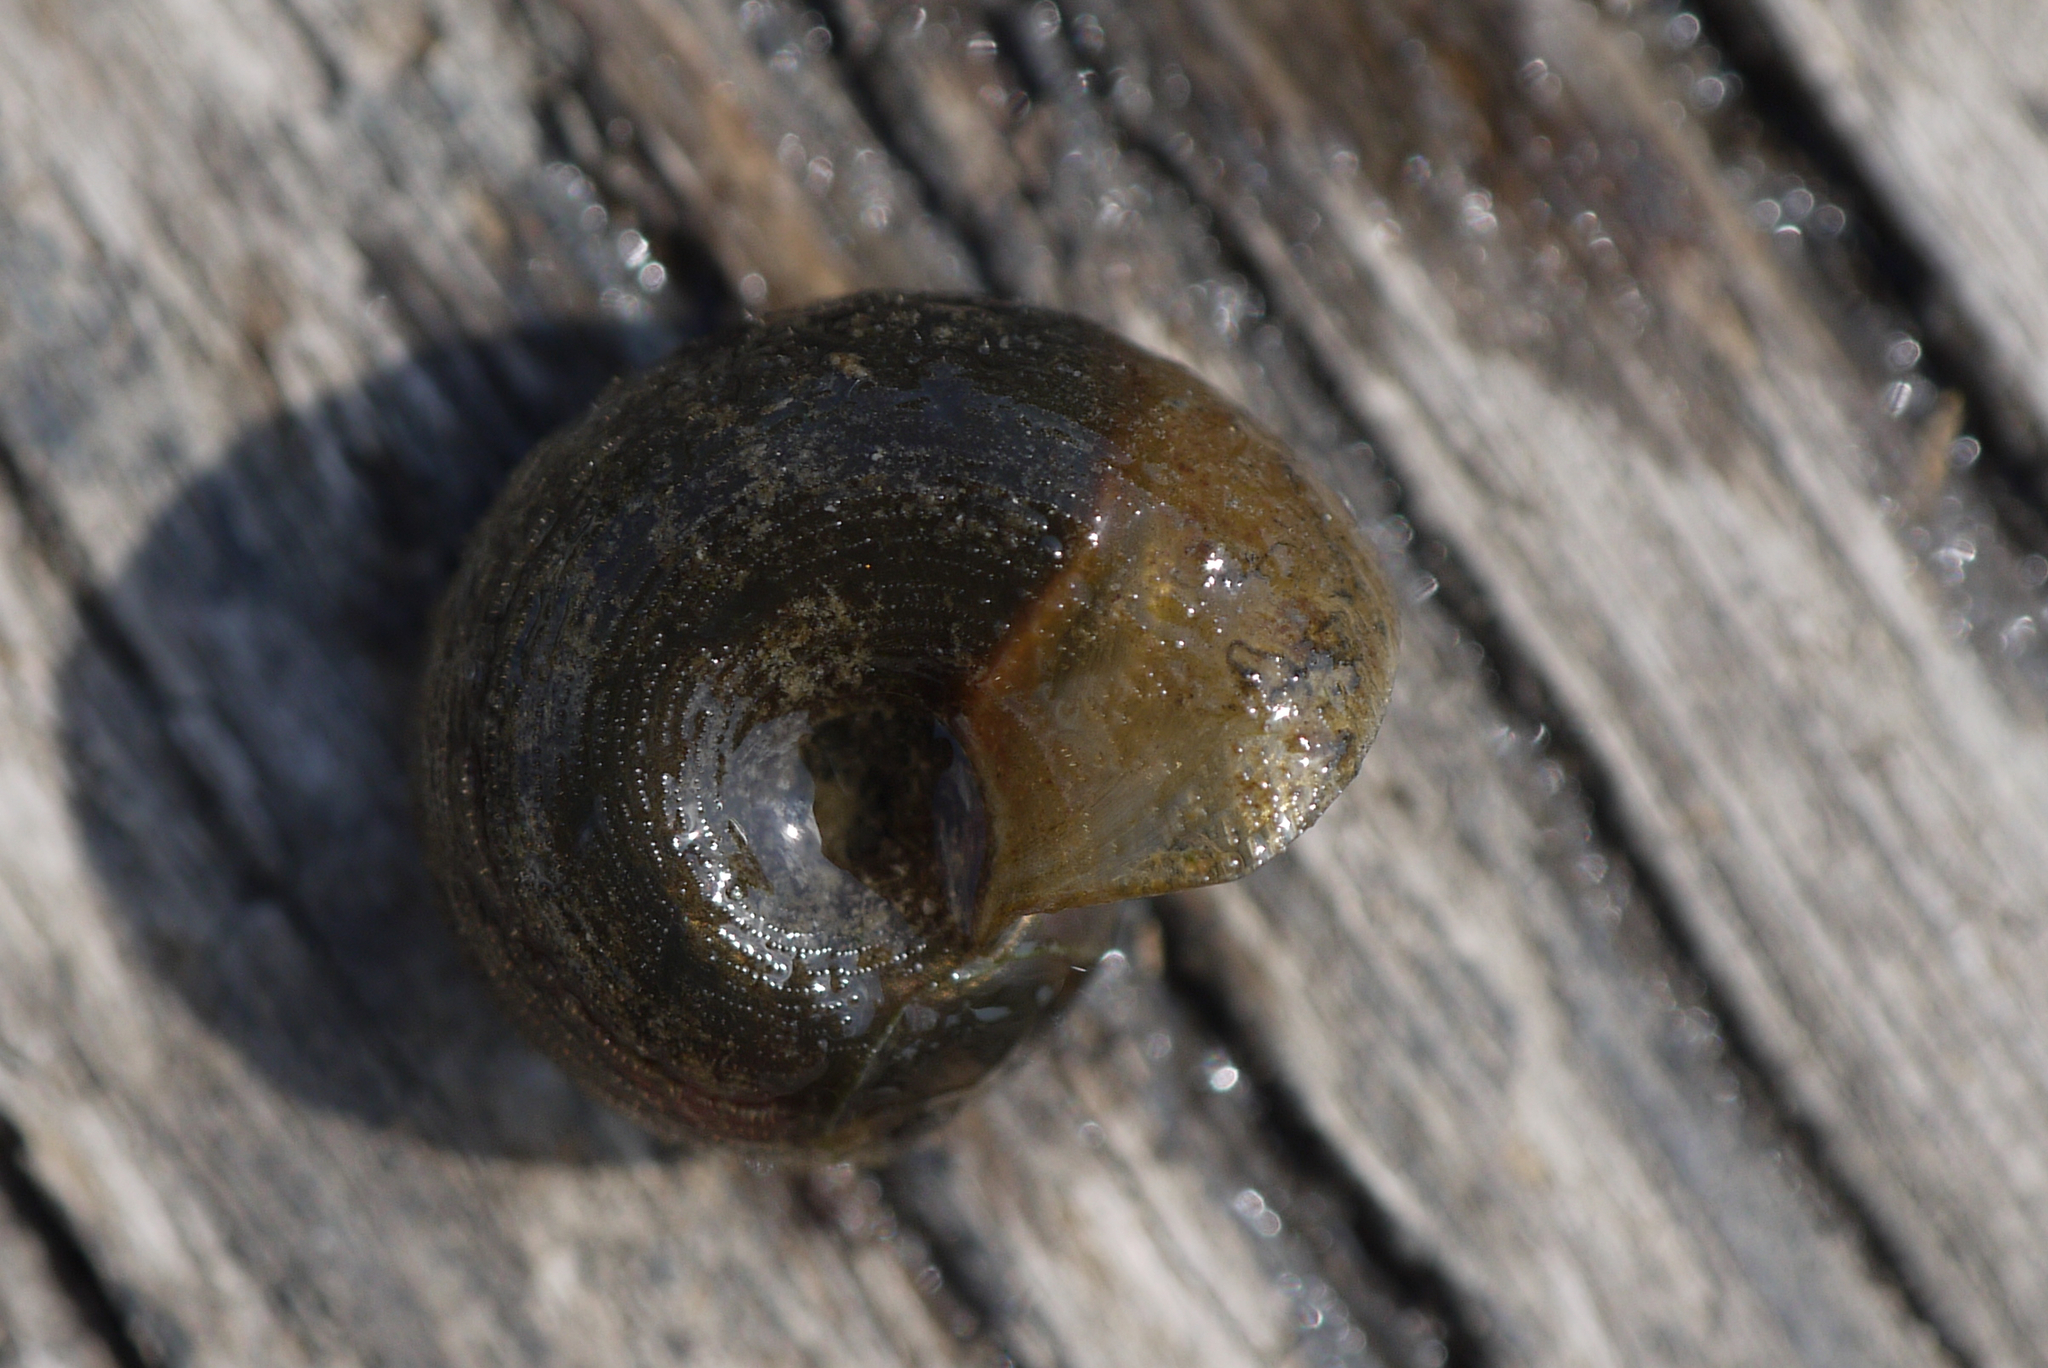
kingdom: Animalia
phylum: Mollusca
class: Gastropoda
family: Planorbidae
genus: Planorbarius
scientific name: Planorbarius corneus
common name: Great ramshorn
